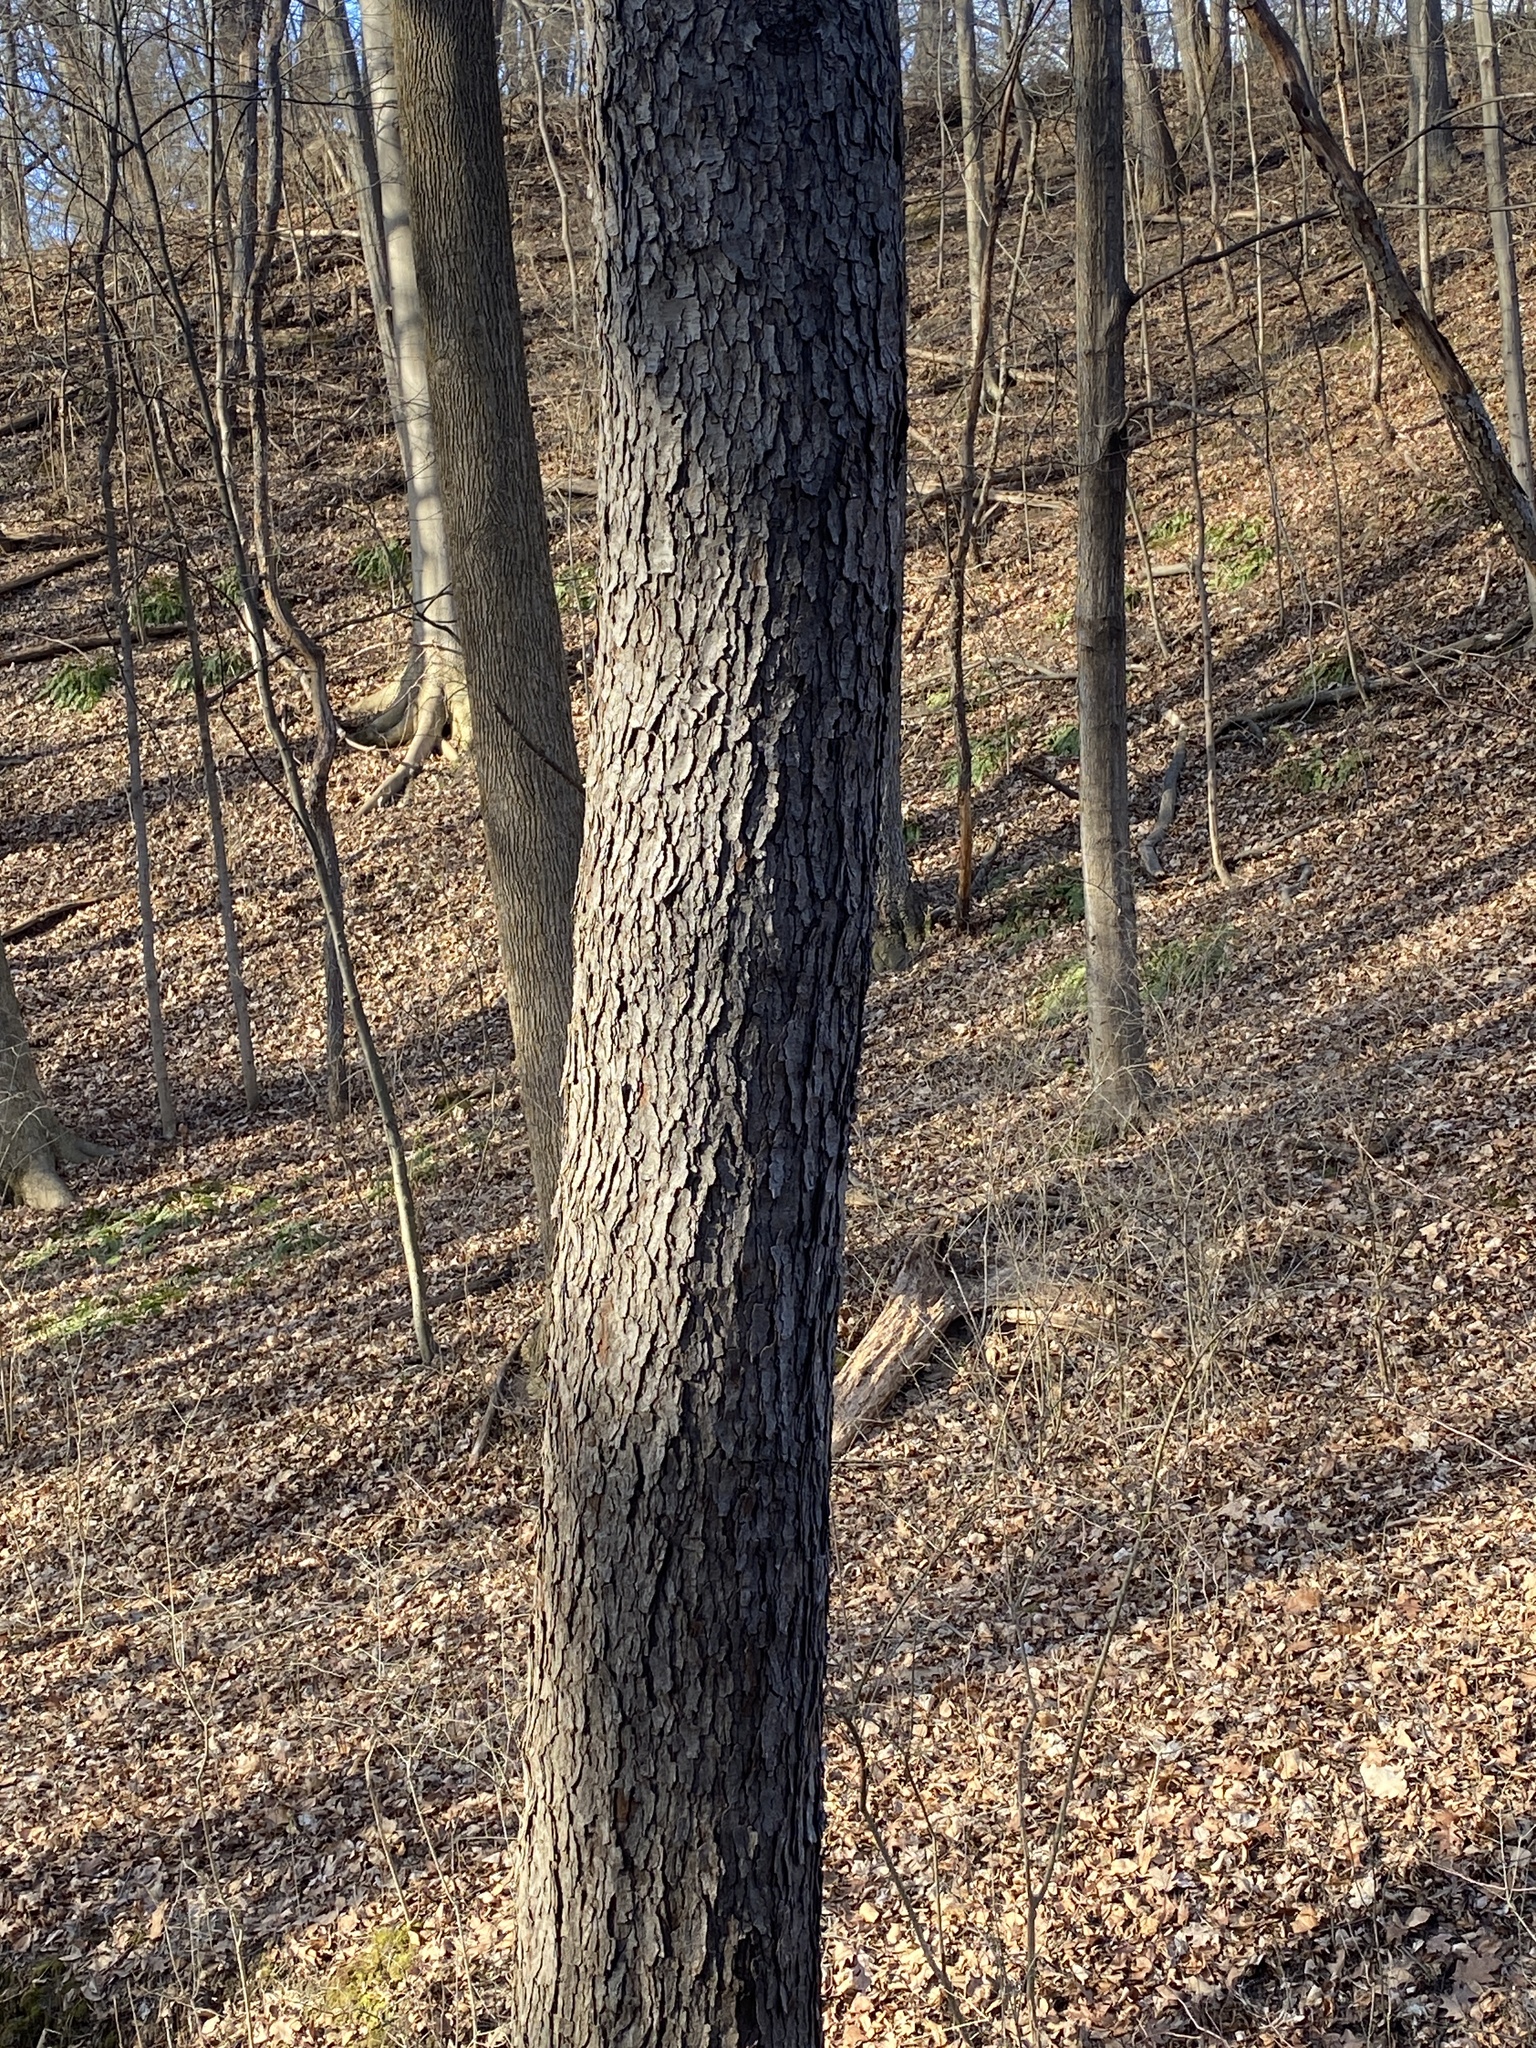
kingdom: Plantae
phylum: Tracheophyta
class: Magnoliopsida
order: Rosales
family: Rosaceae
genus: Prunus
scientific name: Prunus serotina
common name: Black cherry
